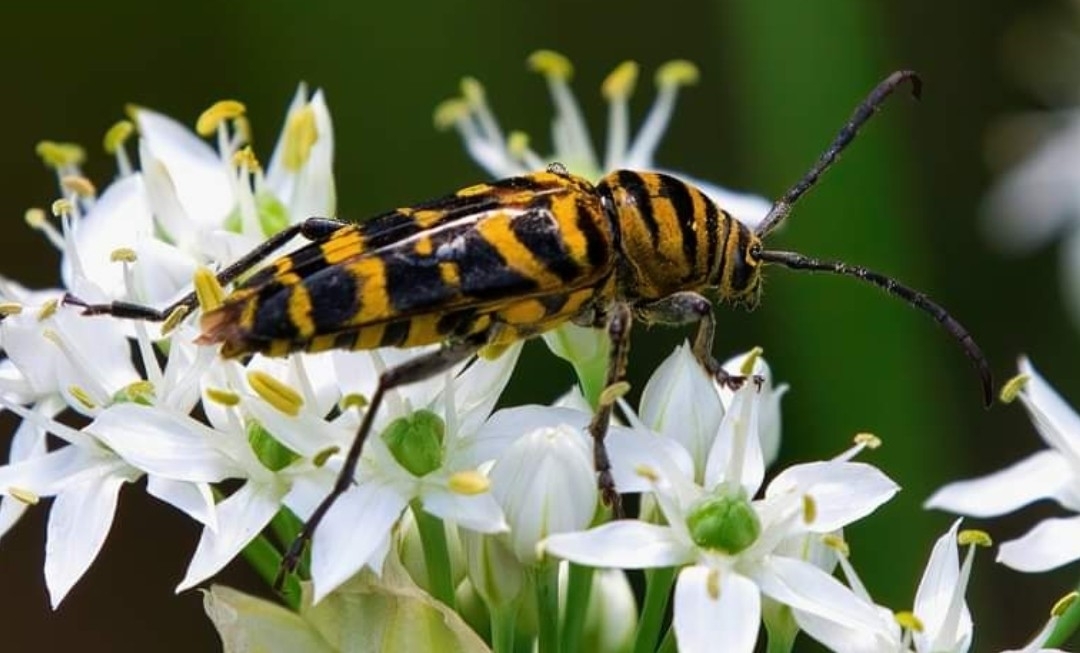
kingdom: Animalia
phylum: Arthropoda
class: Insecta
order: Coleoptera
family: Cerambycidae
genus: Megacyllene
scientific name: Megacyllene robiniae
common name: Locust borer
